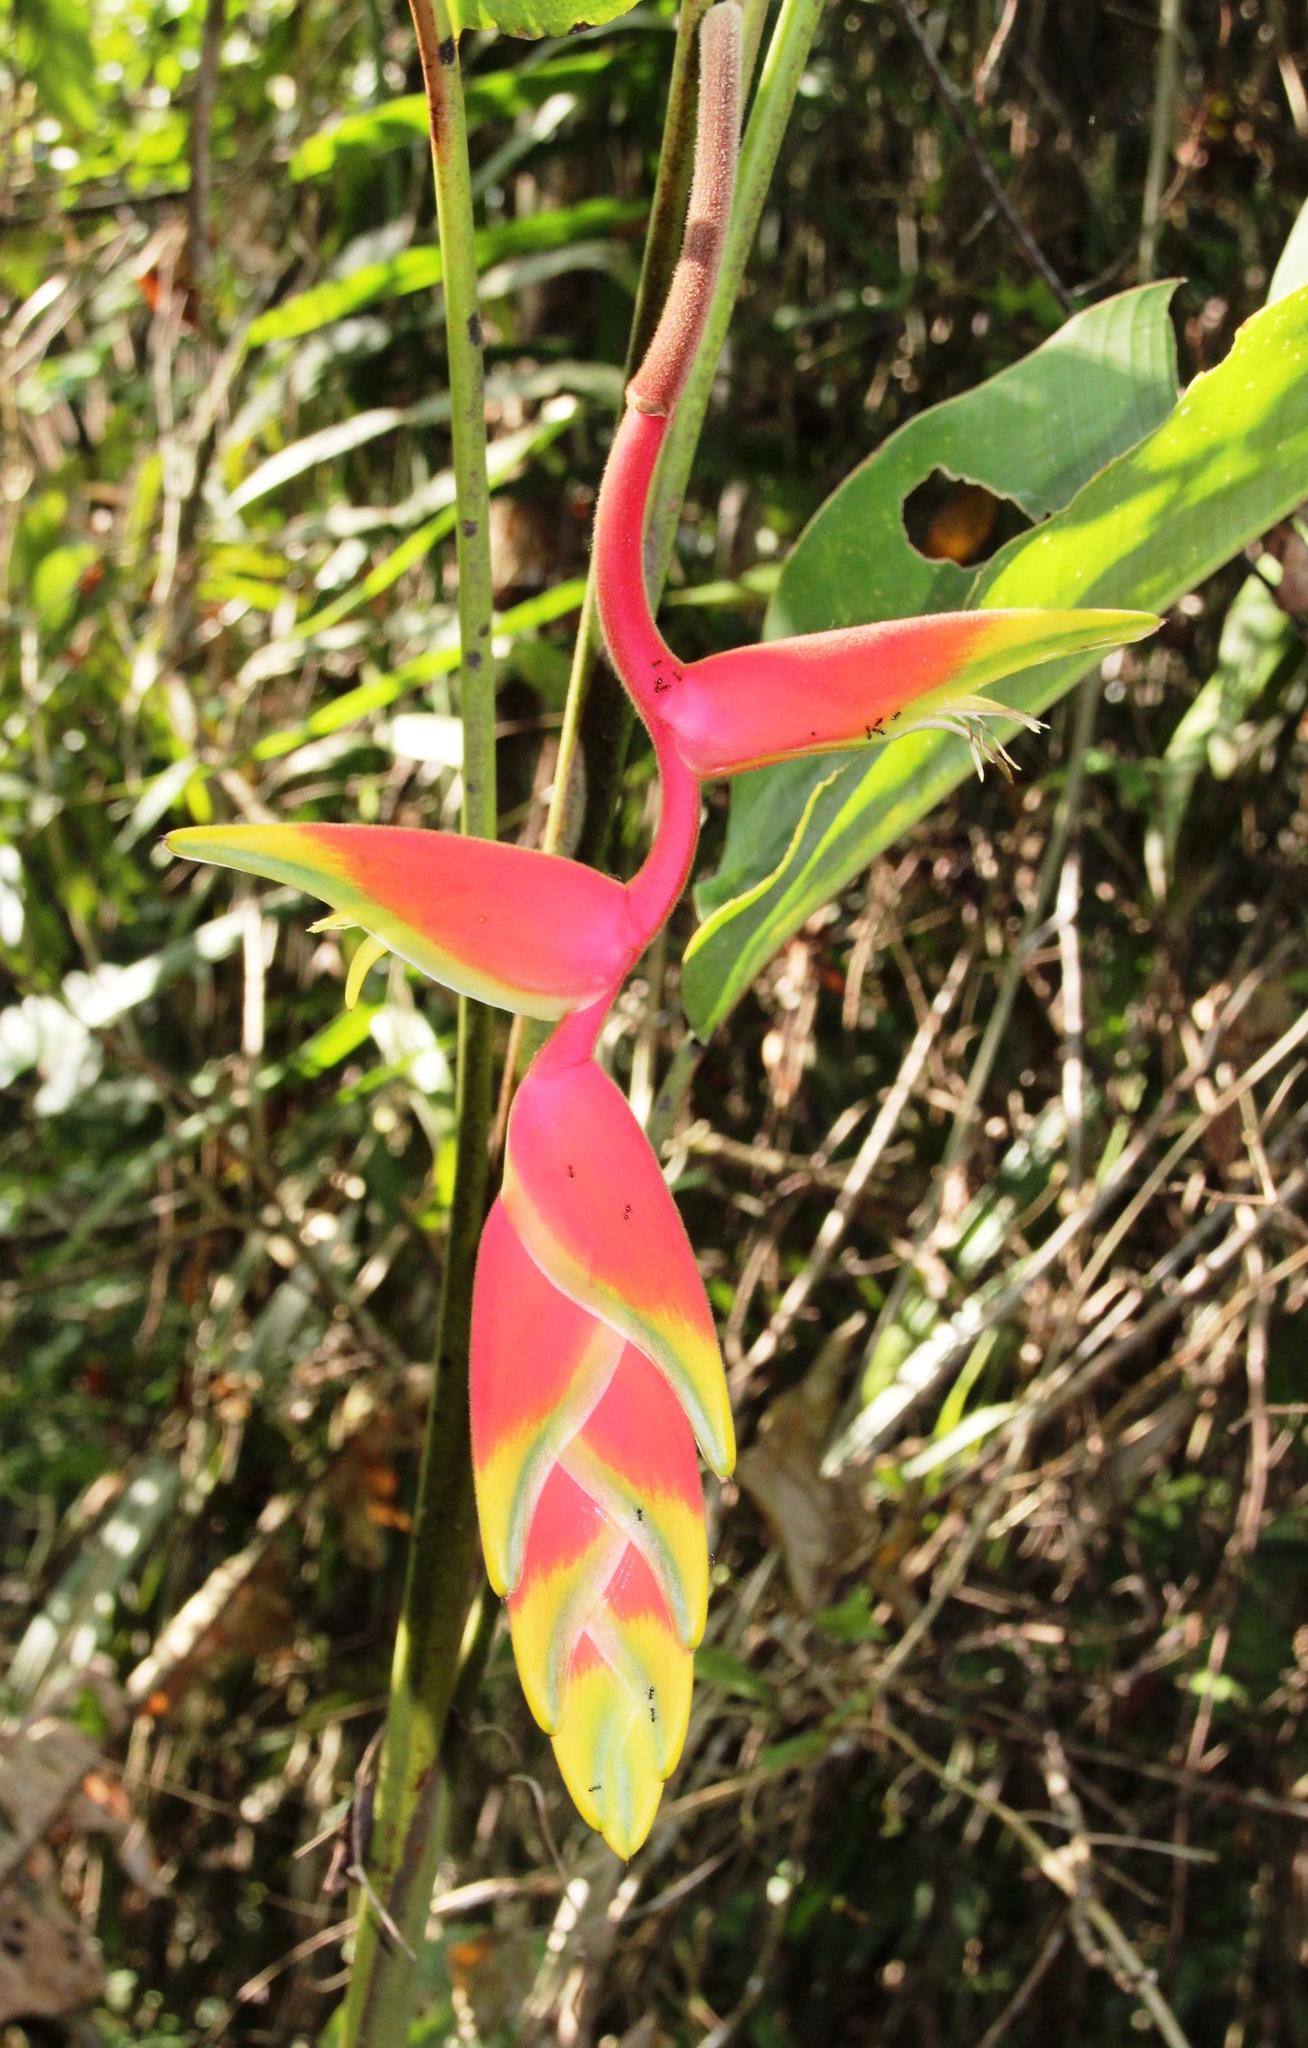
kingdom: Plantae
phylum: Tracheophyta
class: Liliopsida
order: Zingiberales
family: Heliconiaceae
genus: Heliconia
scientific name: Heliconia rostrata
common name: False bird of paradise
